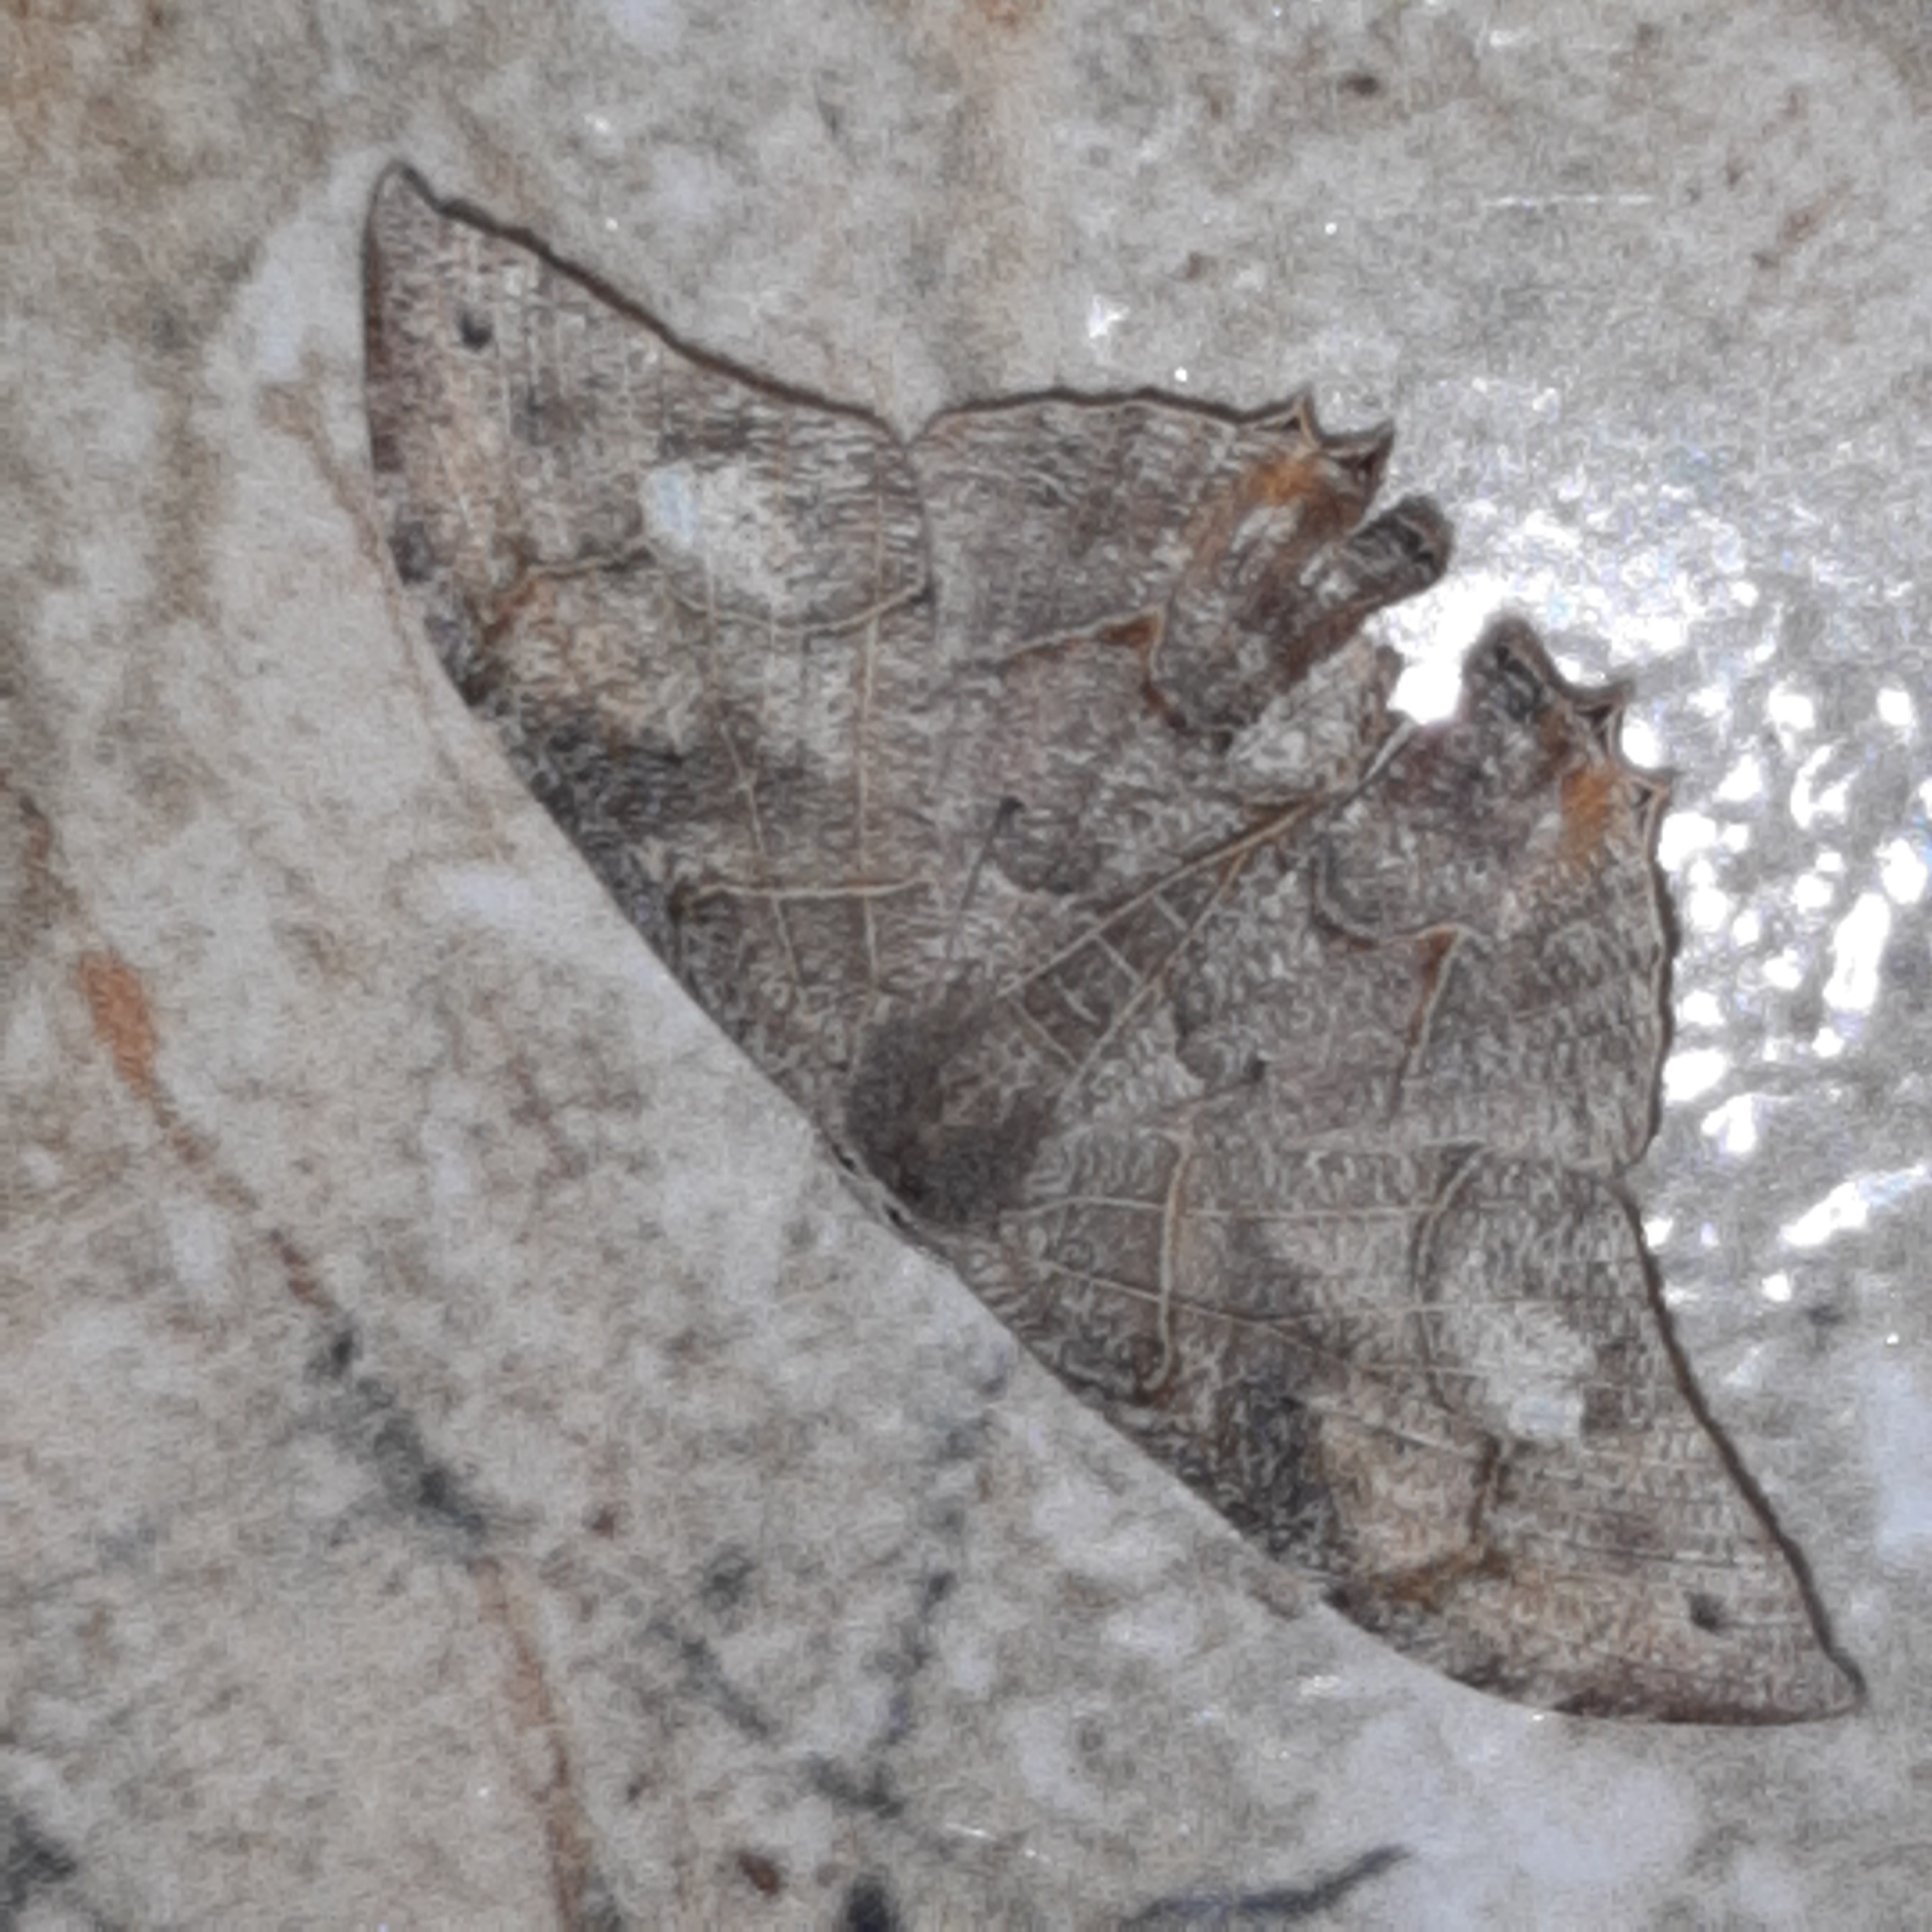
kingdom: Animalia
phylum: Arthropoda
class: Insecta
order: Lepidoptera
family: Uraniidae
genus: Syngria
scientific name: Syngria druidaria
